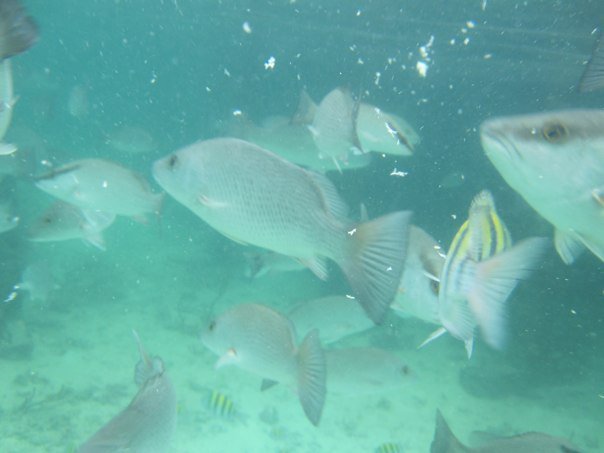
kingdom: Animalia
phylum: Chordata
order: Perciformes
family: Lutjanidae
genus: Lutjanus
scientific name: Lutjanus griseus
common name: Gray snapper
